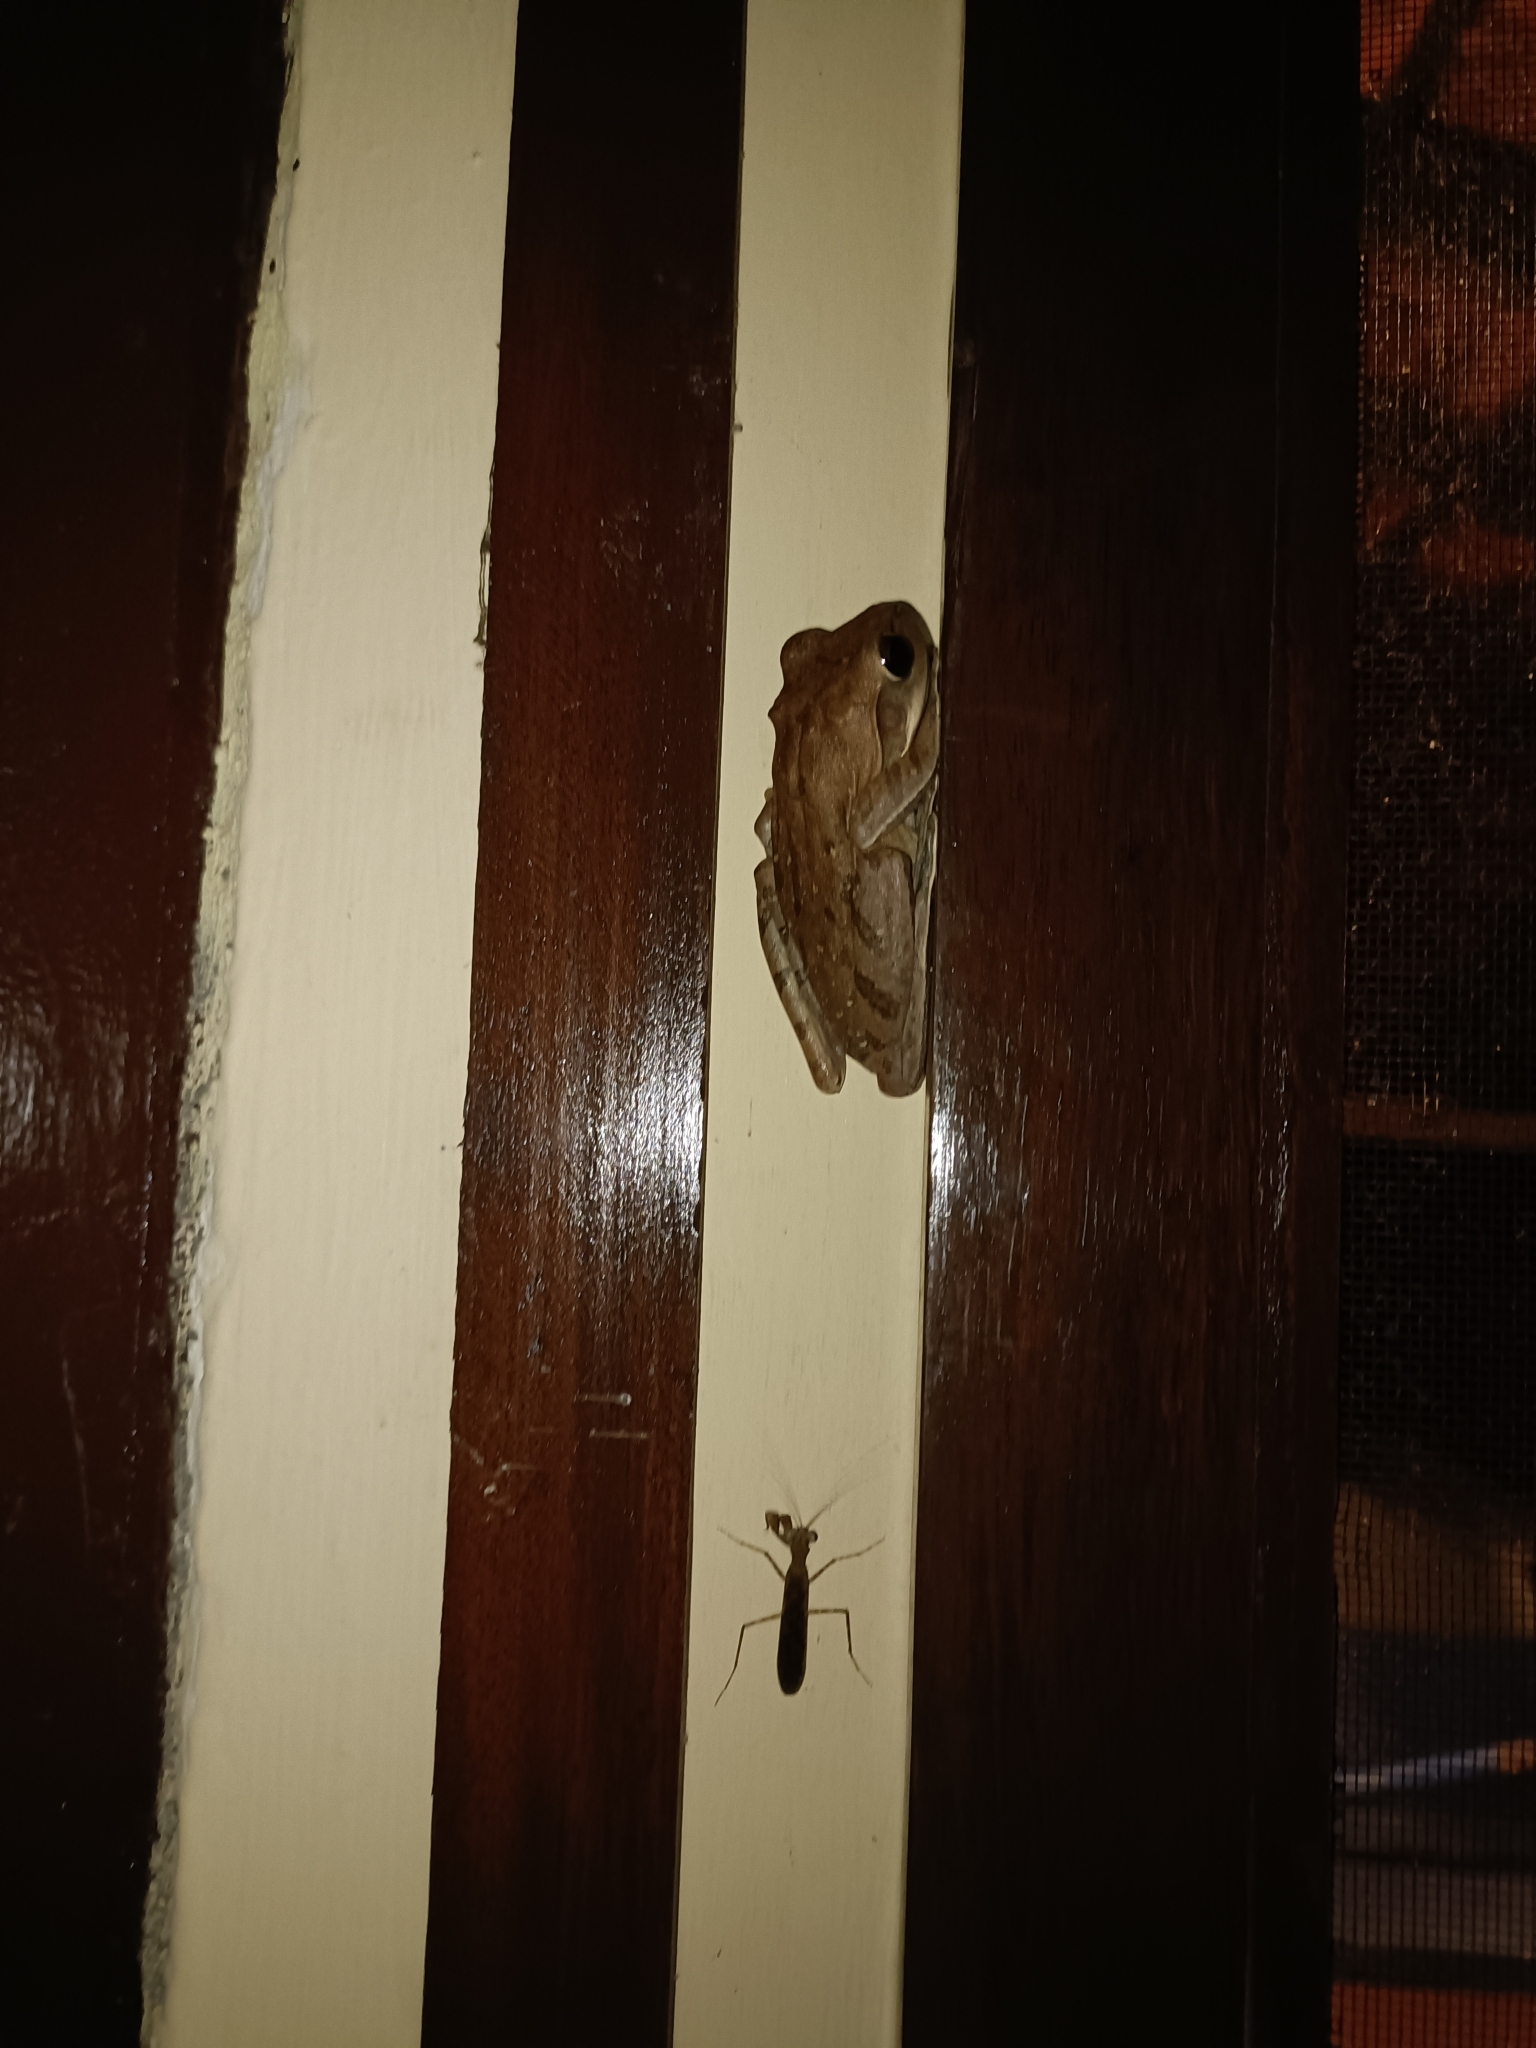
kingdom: Animalia
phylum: Chordata
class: Amphibia
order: Anura
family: Rhacophoridae
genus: Polypedates
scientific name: Polypedates maculatus
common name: Himalayan tree frog
